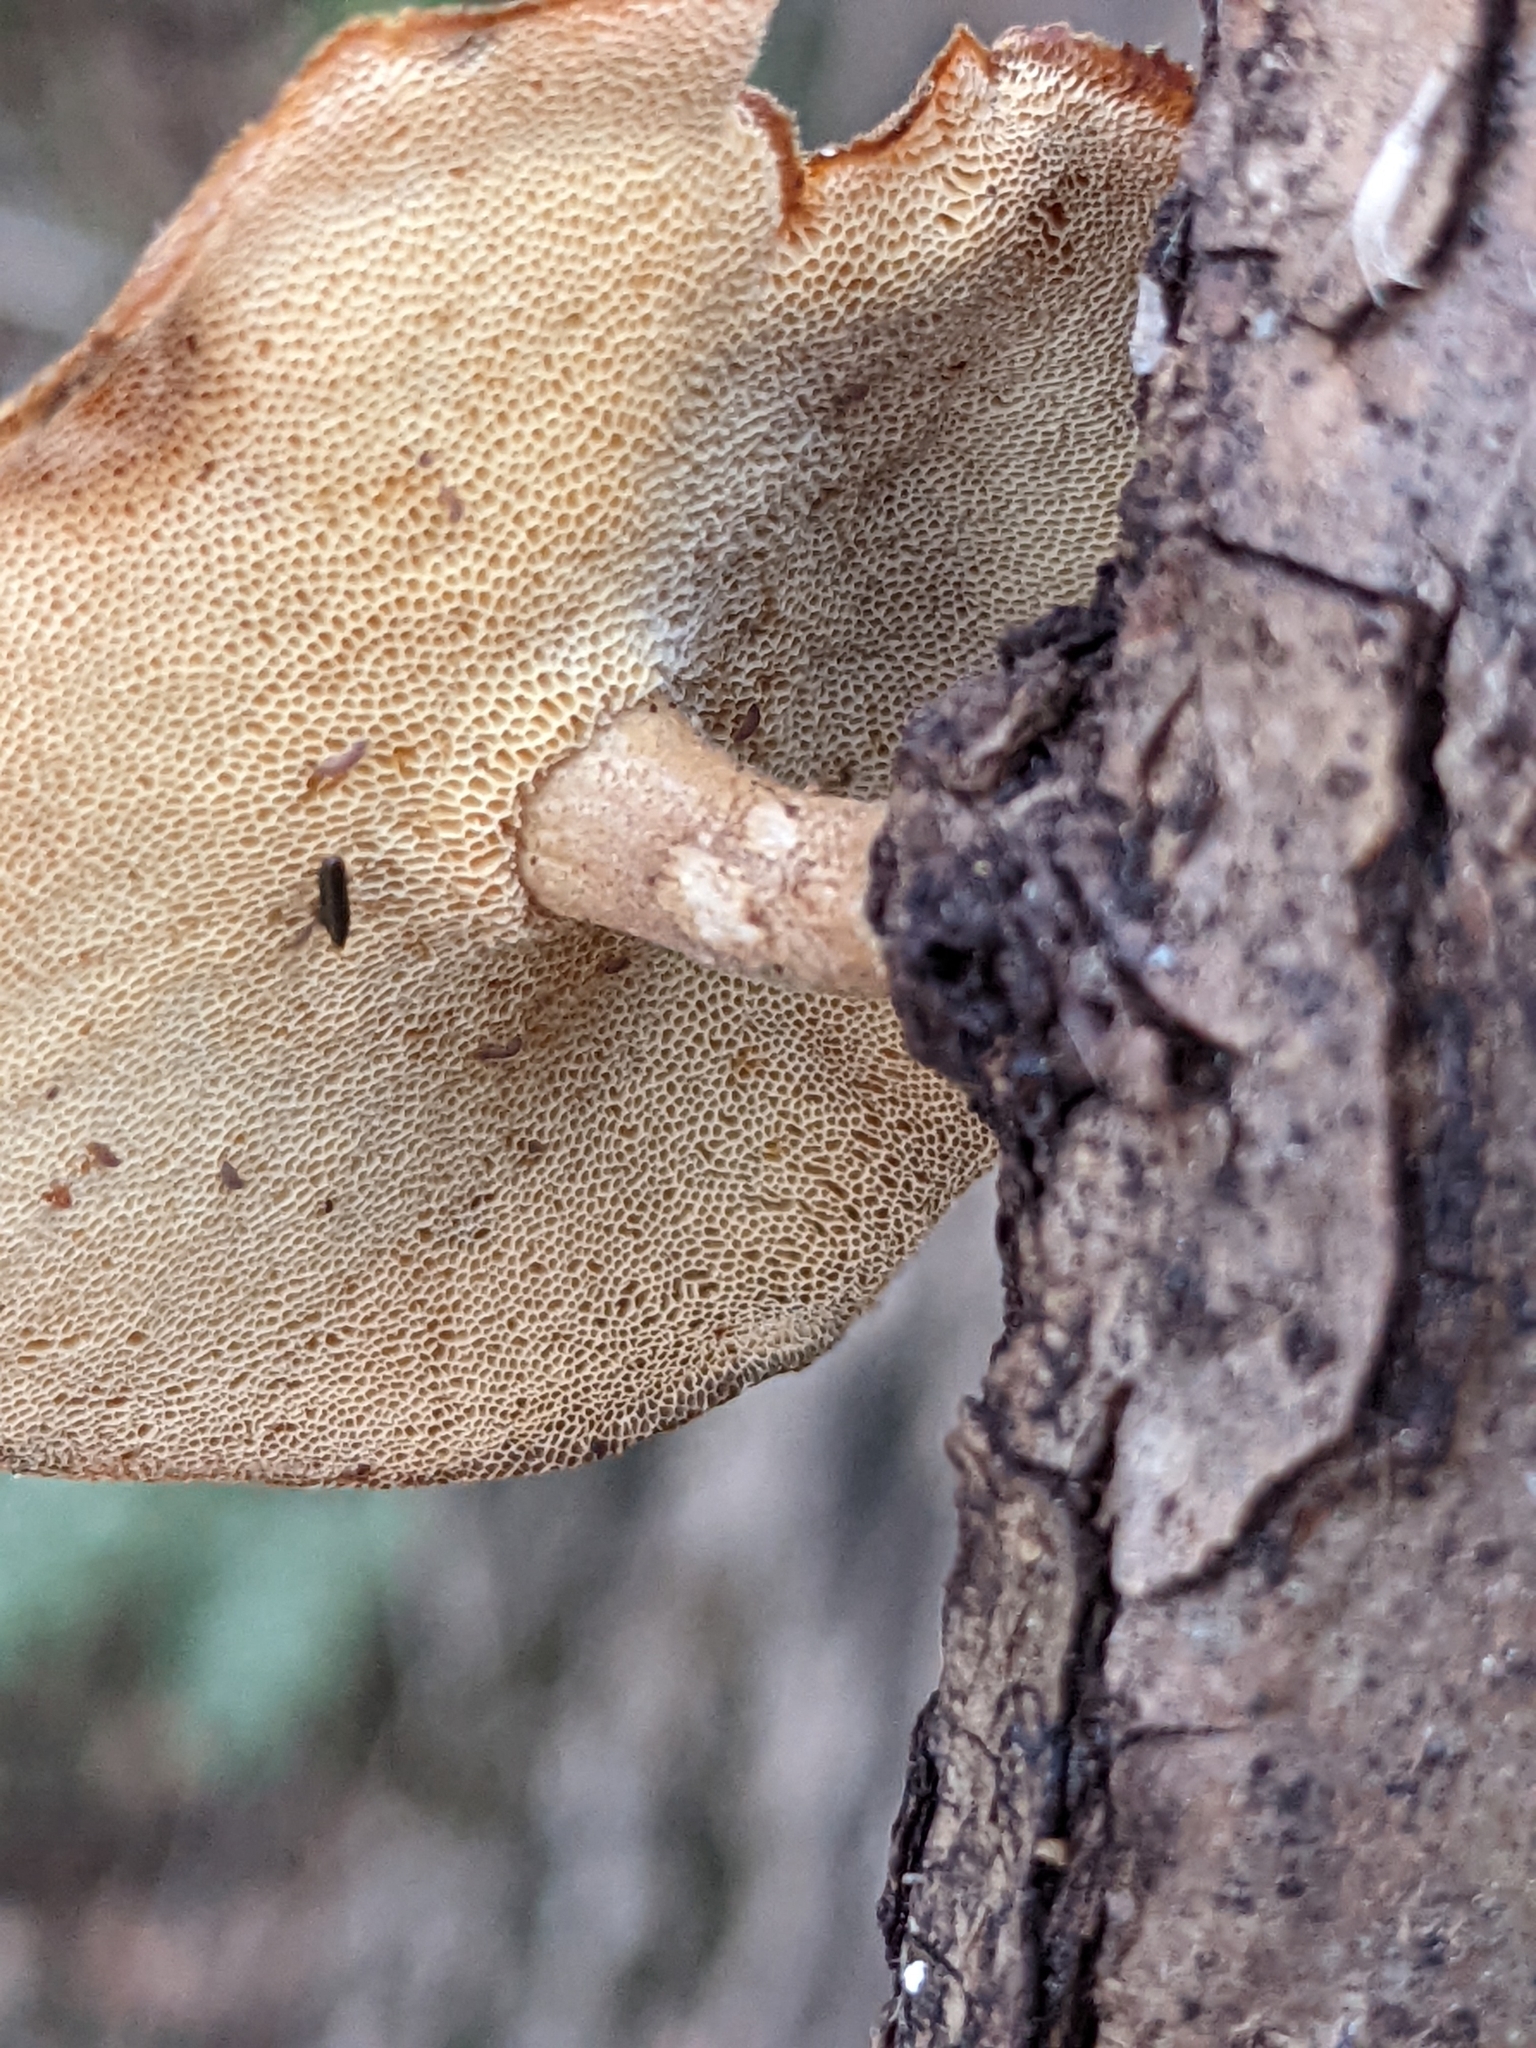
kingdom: Fungi
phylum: Basidiomycota
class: Agaricomycetes
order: Polyporales
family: Polyporaceae
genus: Lentinus
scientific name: Lentinus brumalis
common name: Winter polypore
